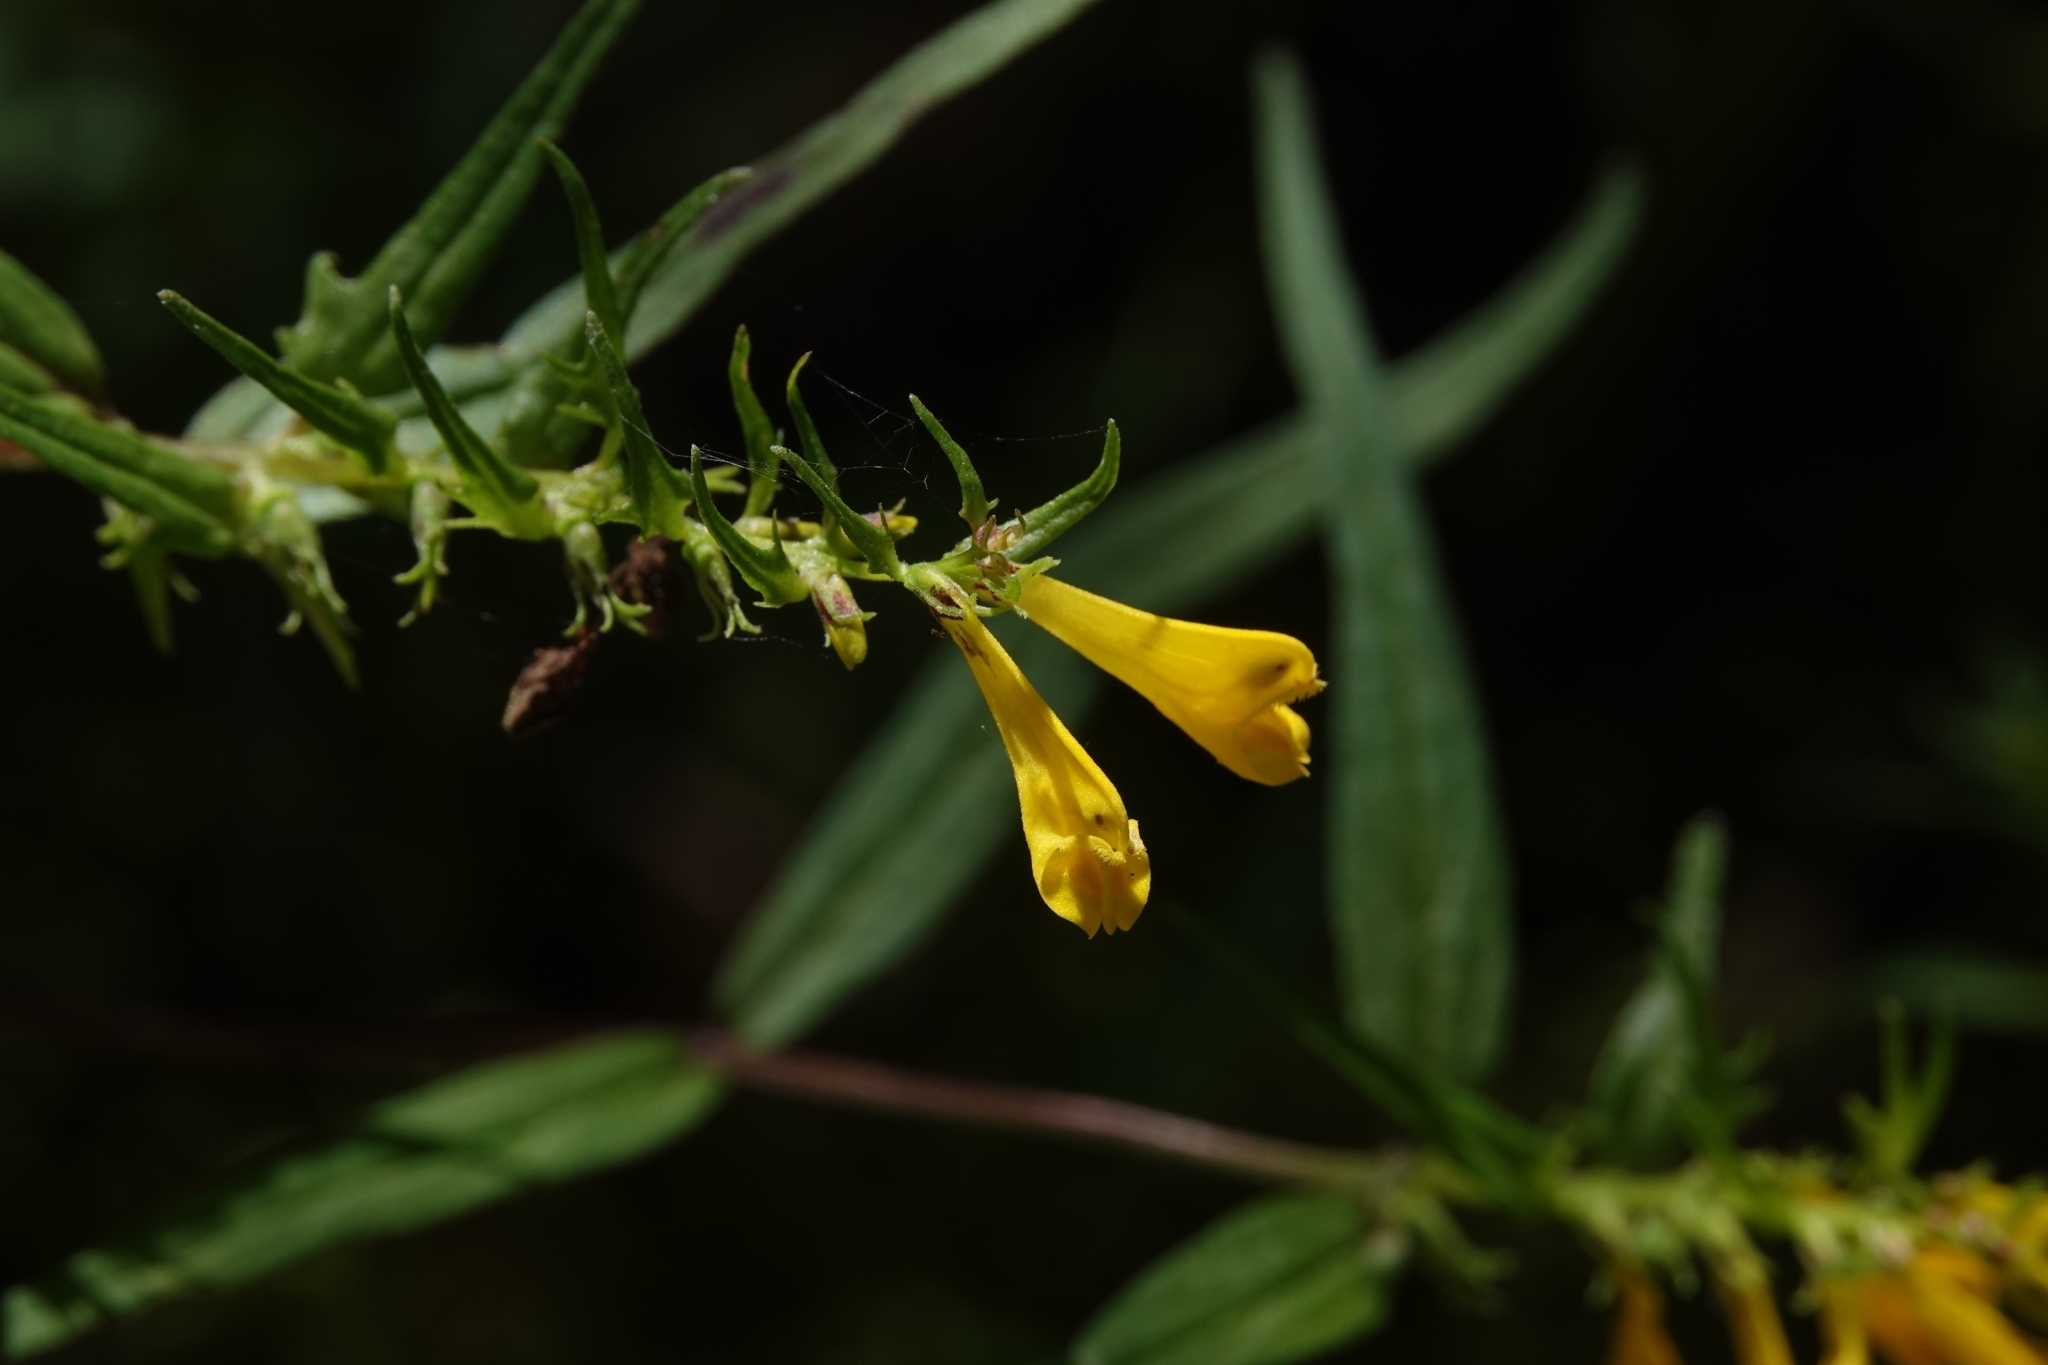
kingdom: Plantae
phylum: Tracheophyta
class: Magnoliopsida
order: Lamiales
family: Orobanchaceae
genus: Melampyrum
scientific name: Melampyrum pratense
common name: Common cow-wheat
